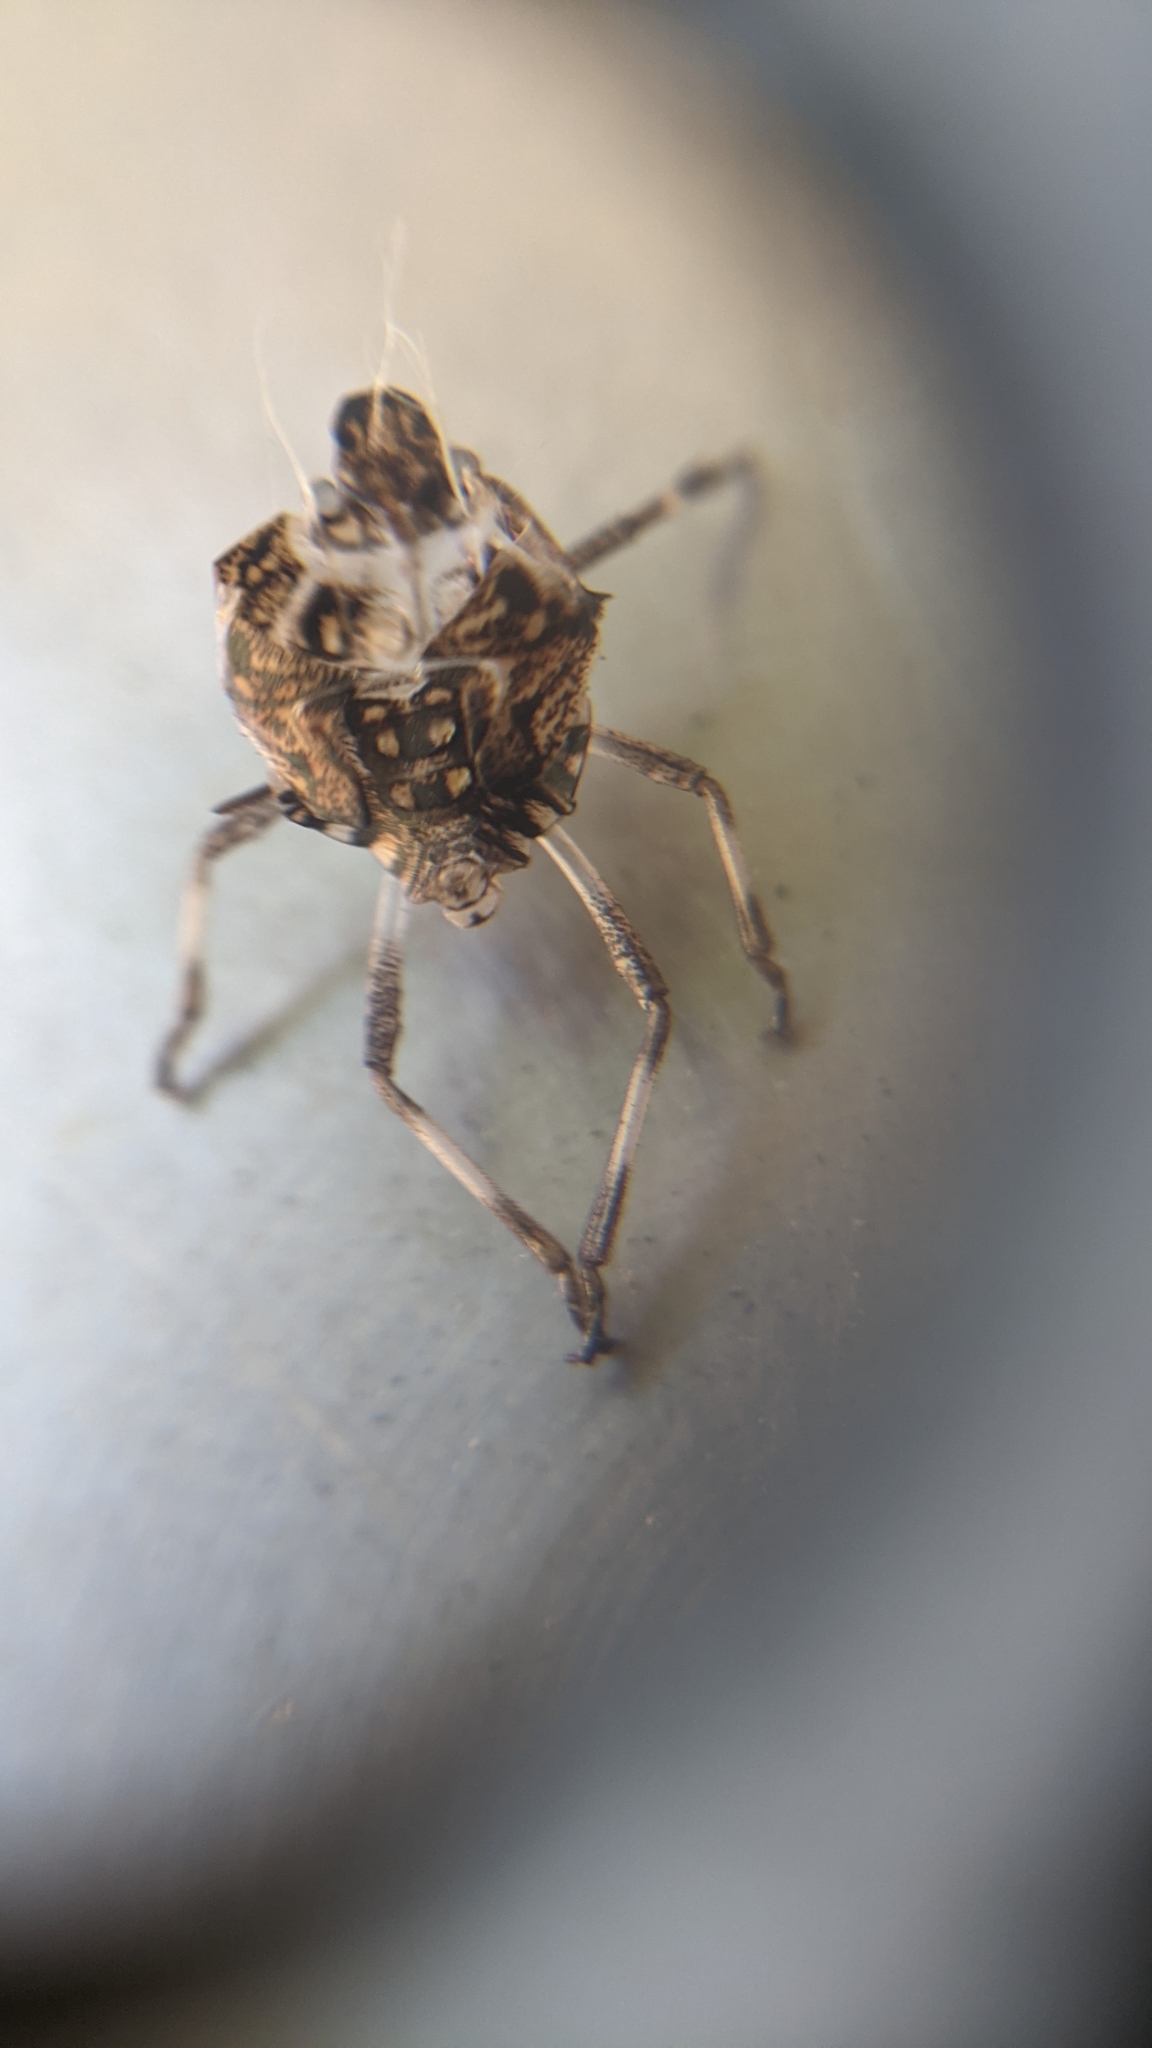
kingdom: Animalia
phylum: Arthropoda
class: Insecta
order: Hemiptera
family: Pentatomidae
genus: Halyomorpha
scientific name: Halyomorpha halys
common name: Brown marmorated stink bug
